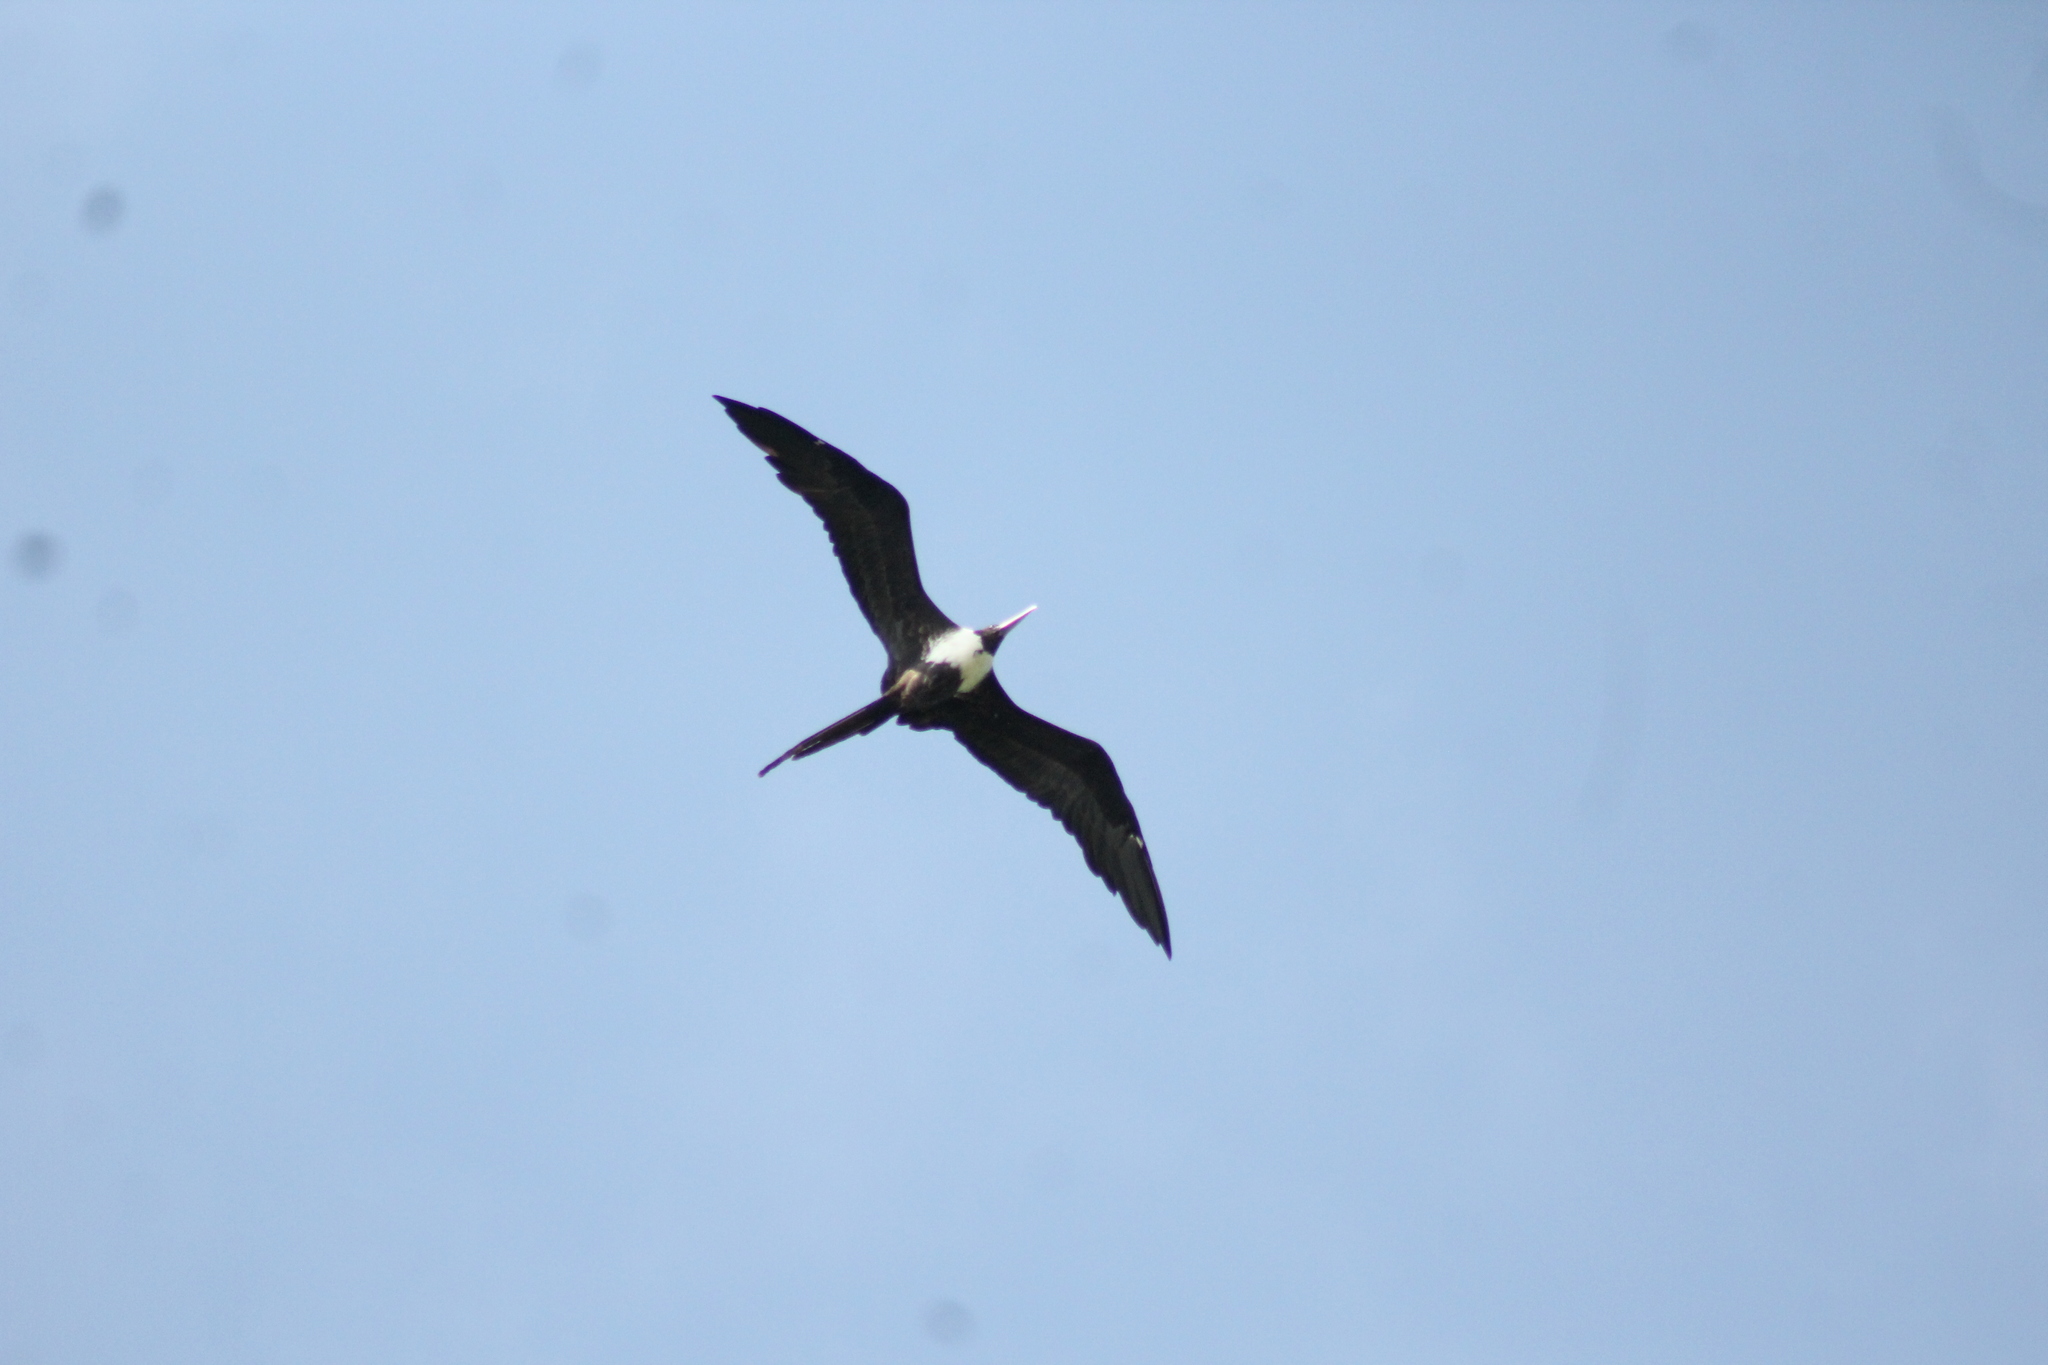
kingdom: Animalia
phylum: Chordata
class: Aves
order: Suliformes
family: Fregatidae
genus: Fregata
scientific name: Fregata magnificens
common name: Magnificent frigatebird
